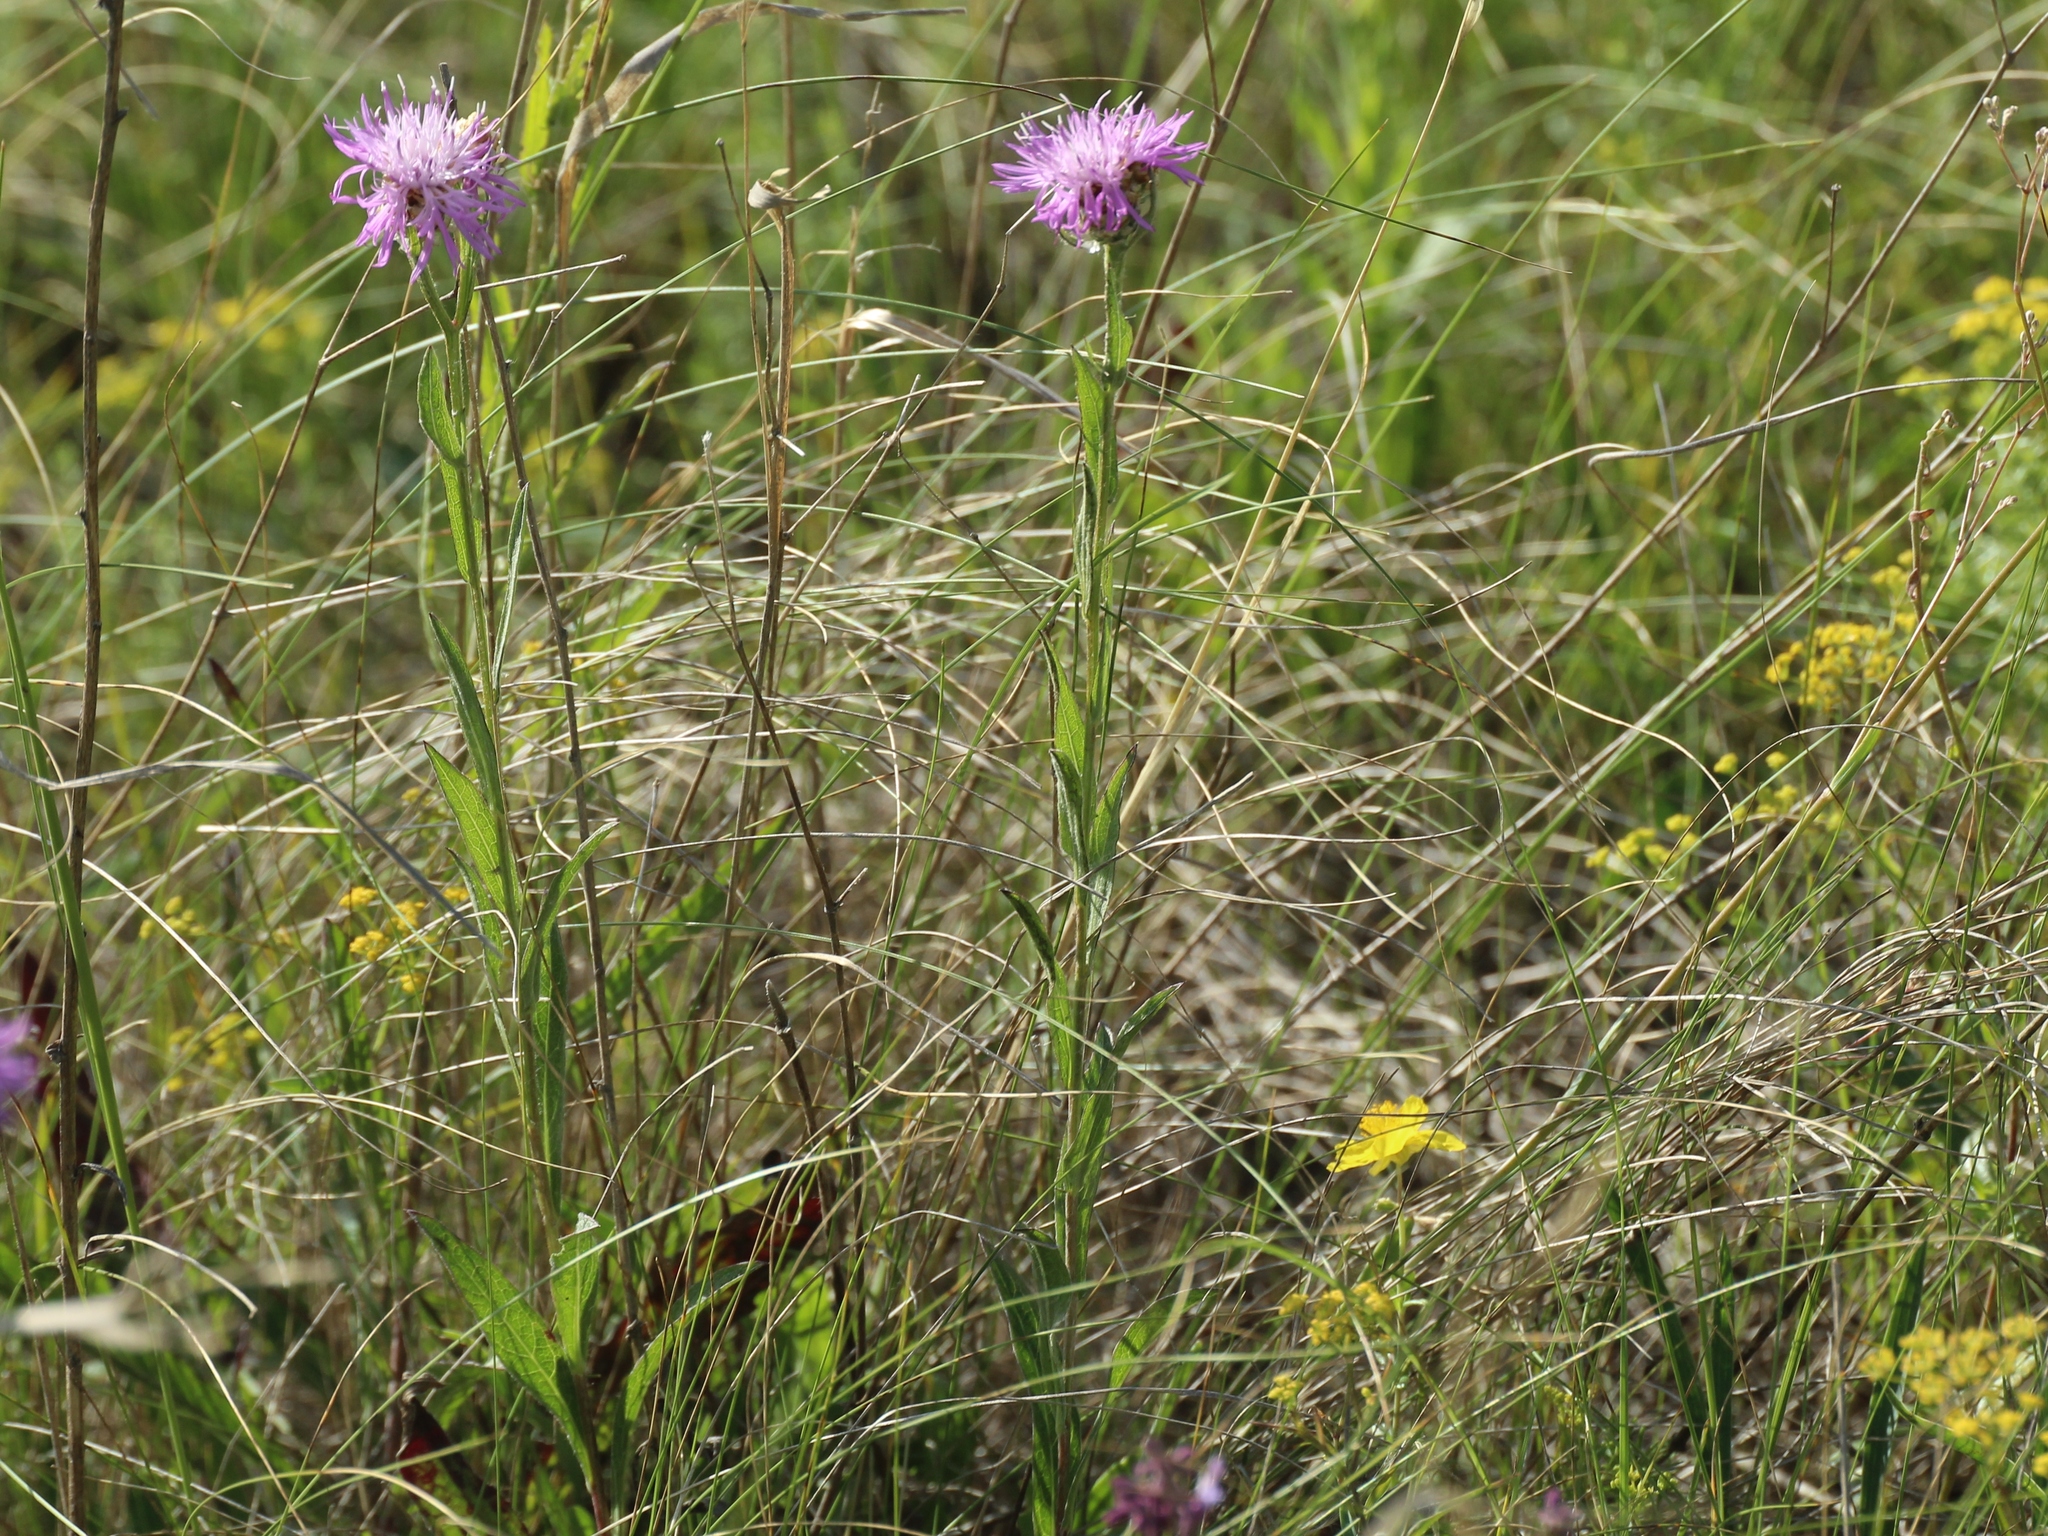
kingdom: Plantae
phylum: Tracheophyta
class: Magnoliopsida
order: Asterales
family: Asteraceae
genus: Centaurea
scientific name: Centaurea jacea
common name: Brown knapweed
